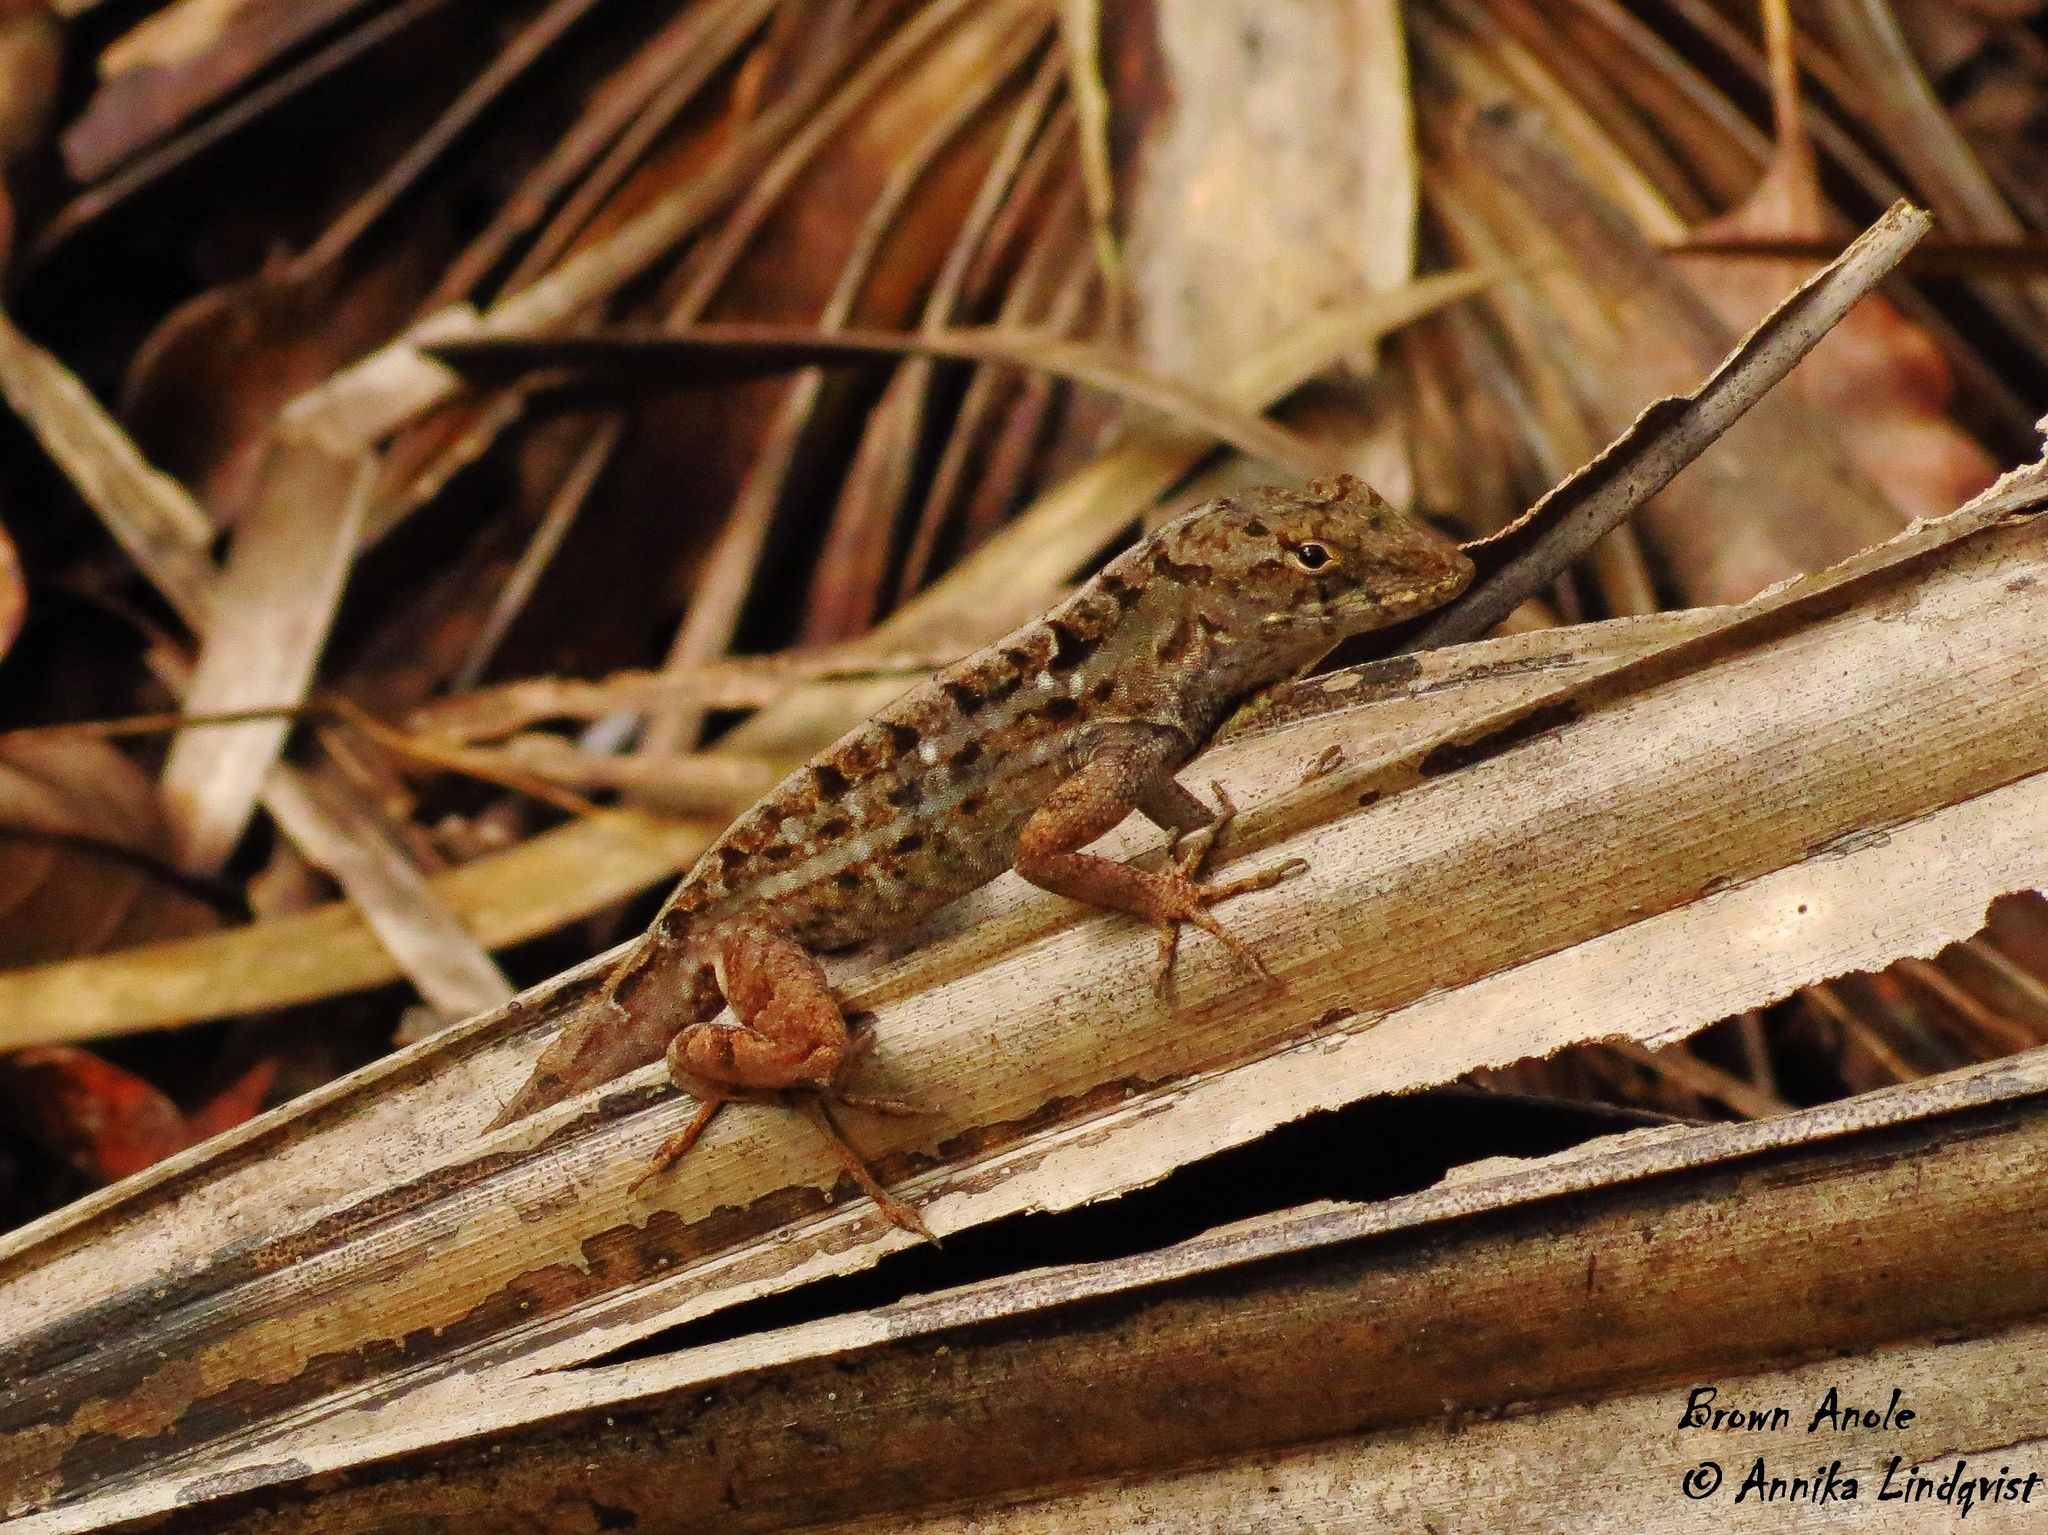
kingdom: Animalia
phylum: Chordata
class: Squamata
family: Dactyloidae
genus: Anolis
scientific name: Anolis sagrei
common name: Brown anole
